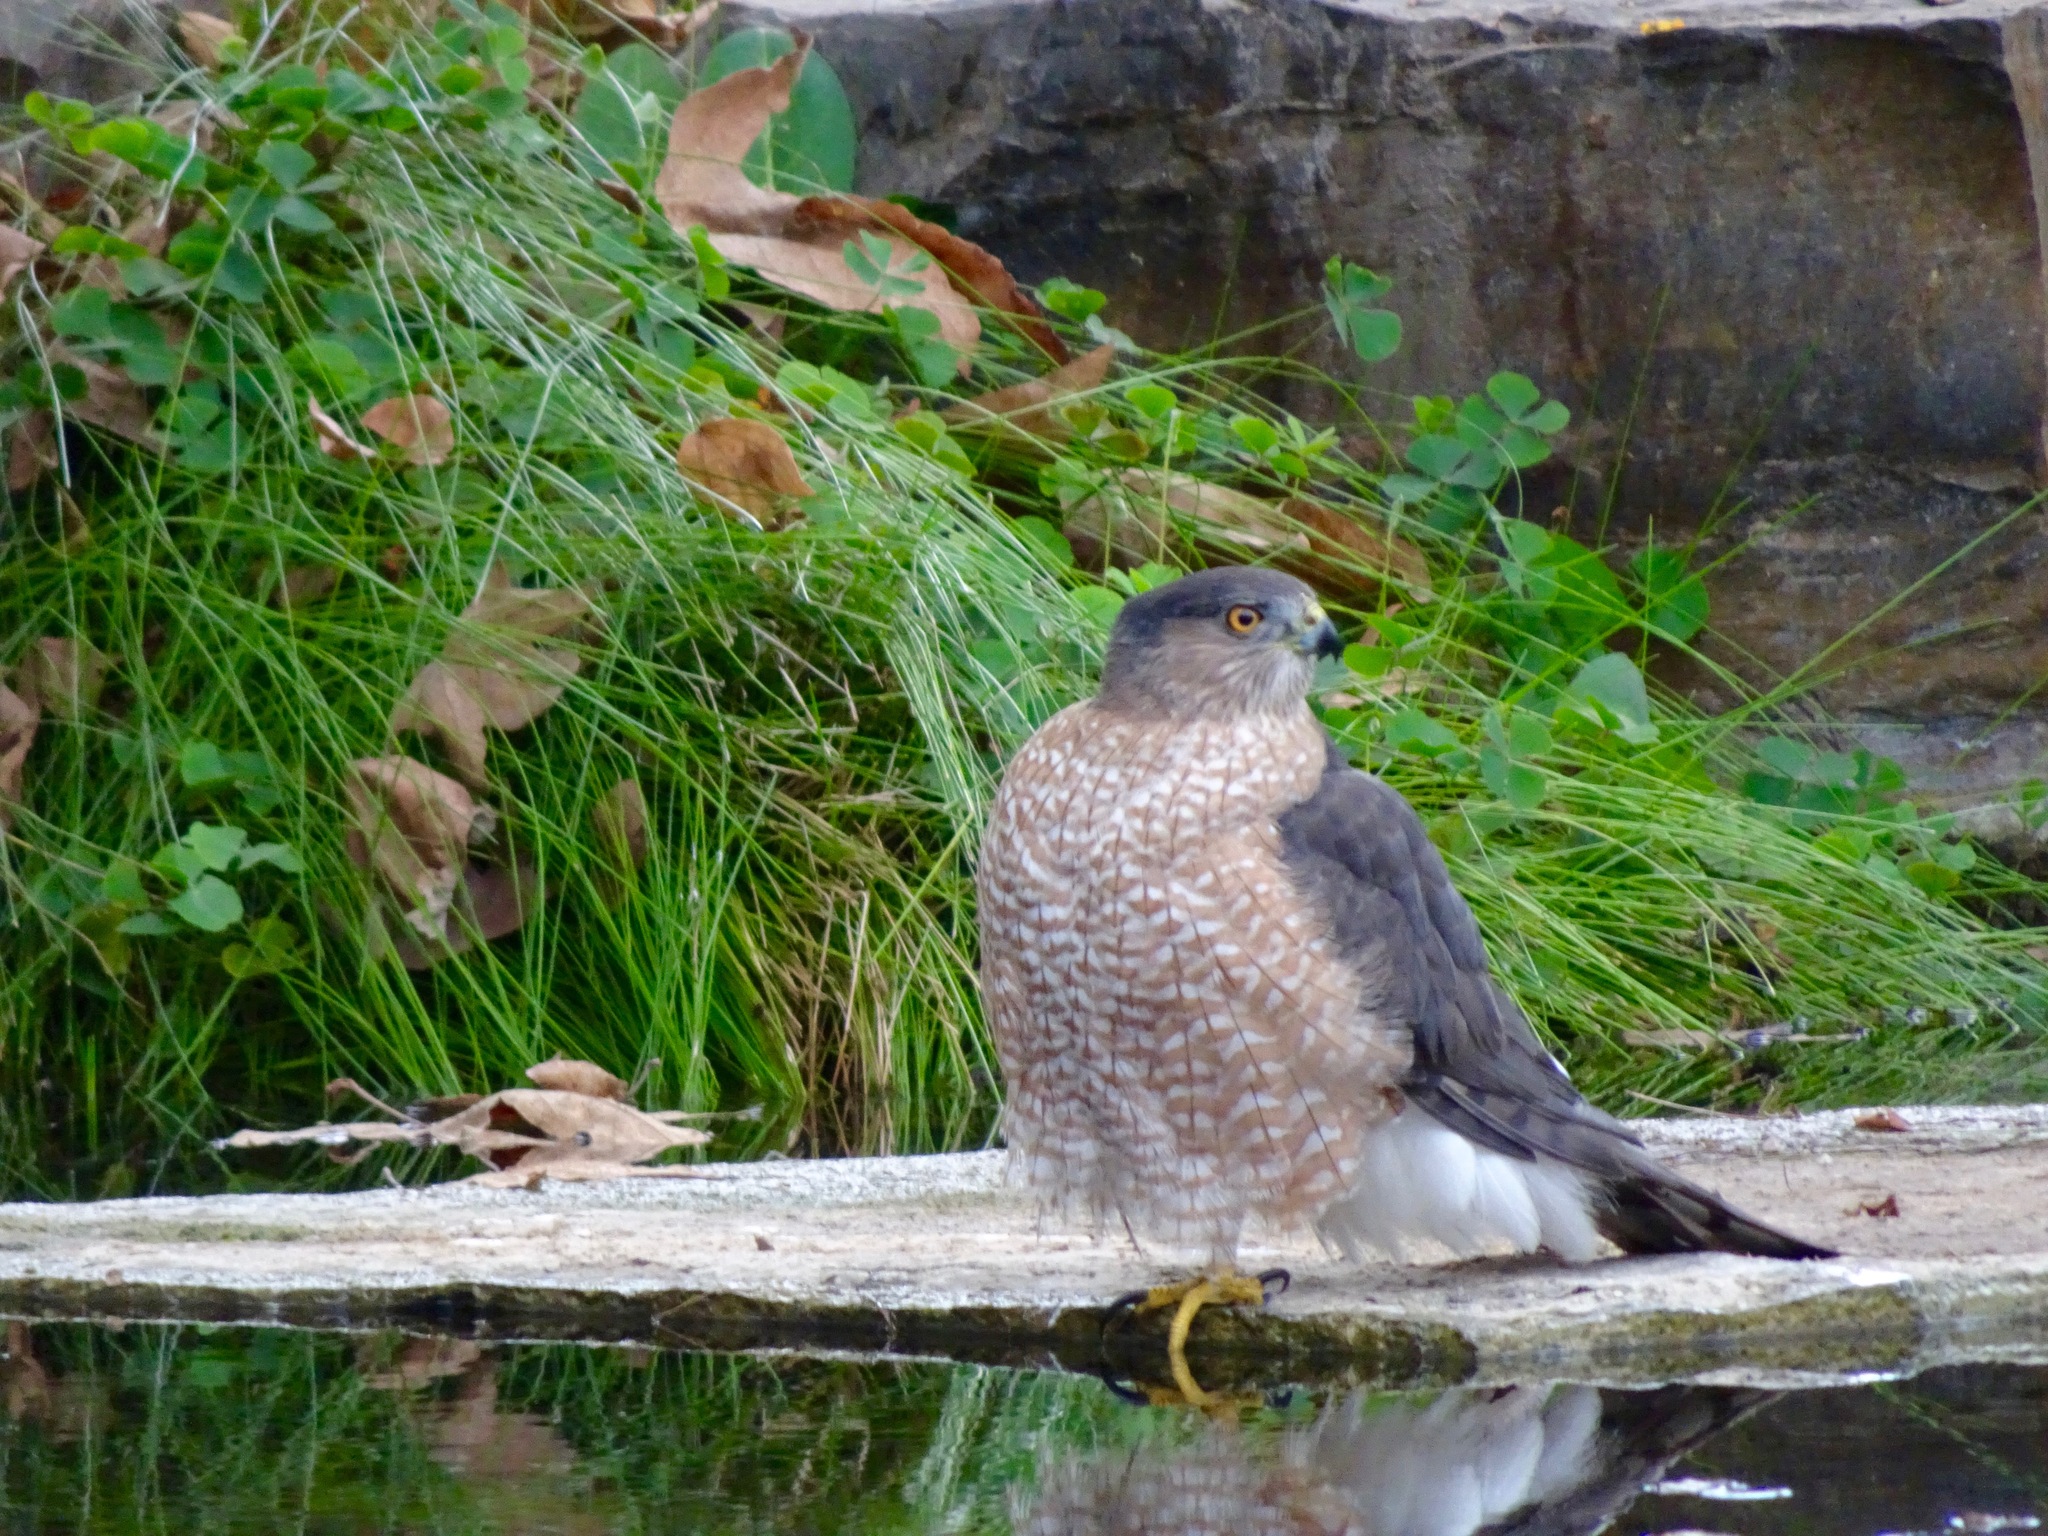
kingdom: Animalia
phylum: Chordata
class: Aves
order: Accipitriformes
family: Accipitridae
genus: Accipiter
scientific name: Accipiter cooperii
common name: Cooper's hawk
